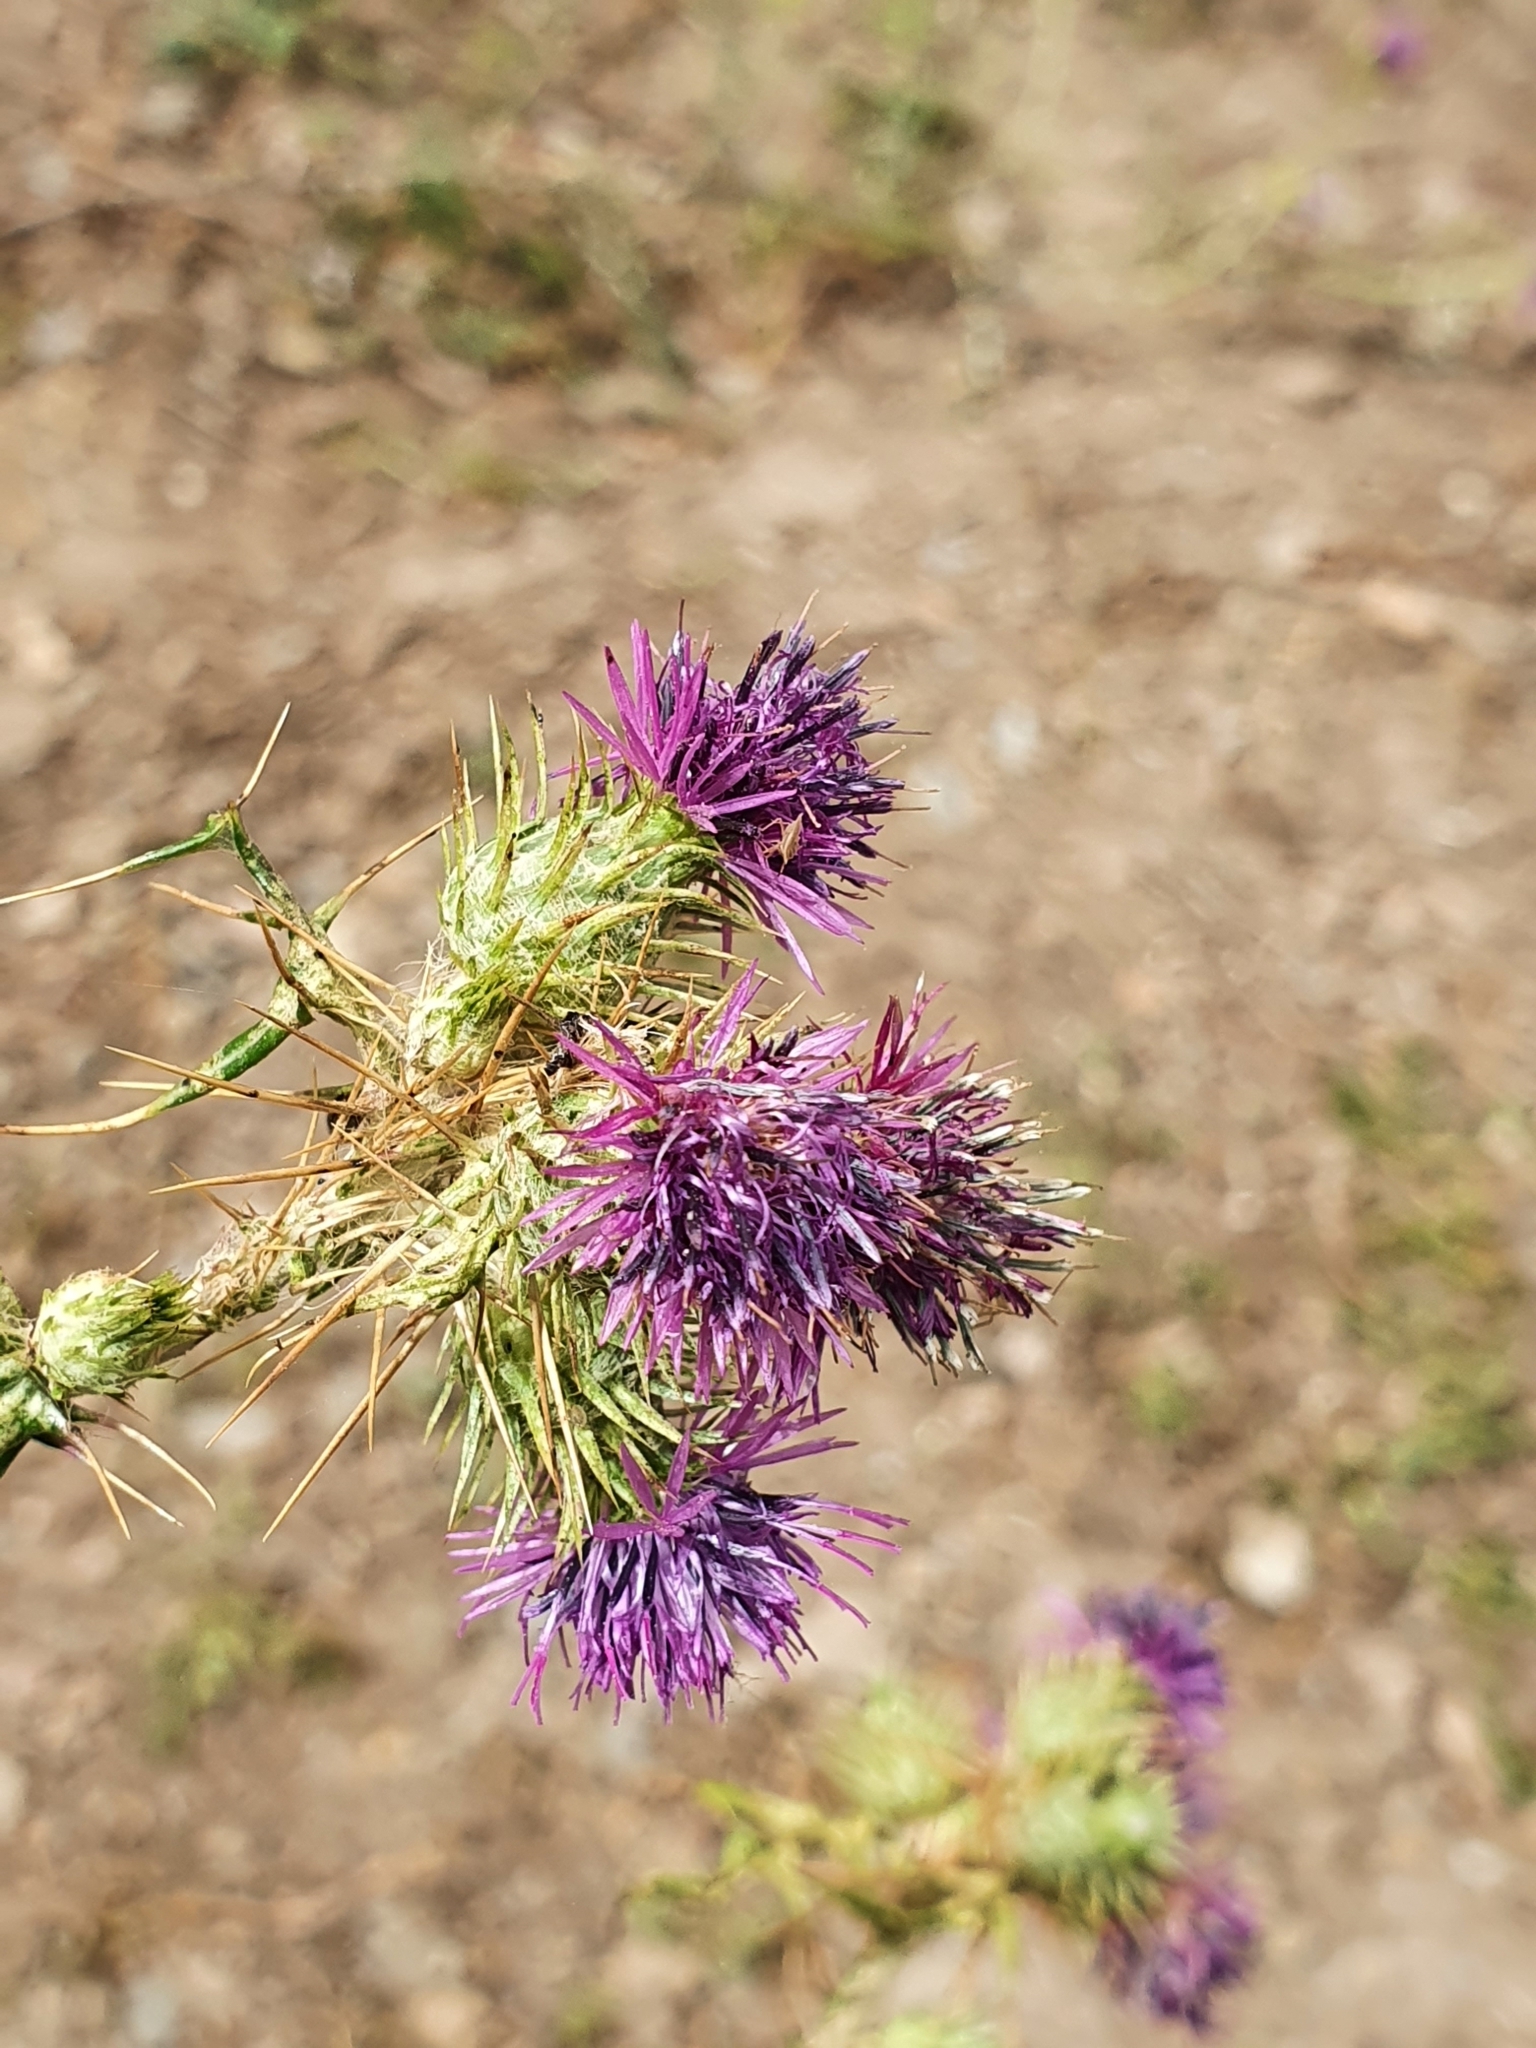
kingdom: Plantae
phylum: Tracheophyta
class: Magnoliopsida
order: Asterales
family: Asteraceae
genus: Galactites
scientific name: Galactites mutabilis
